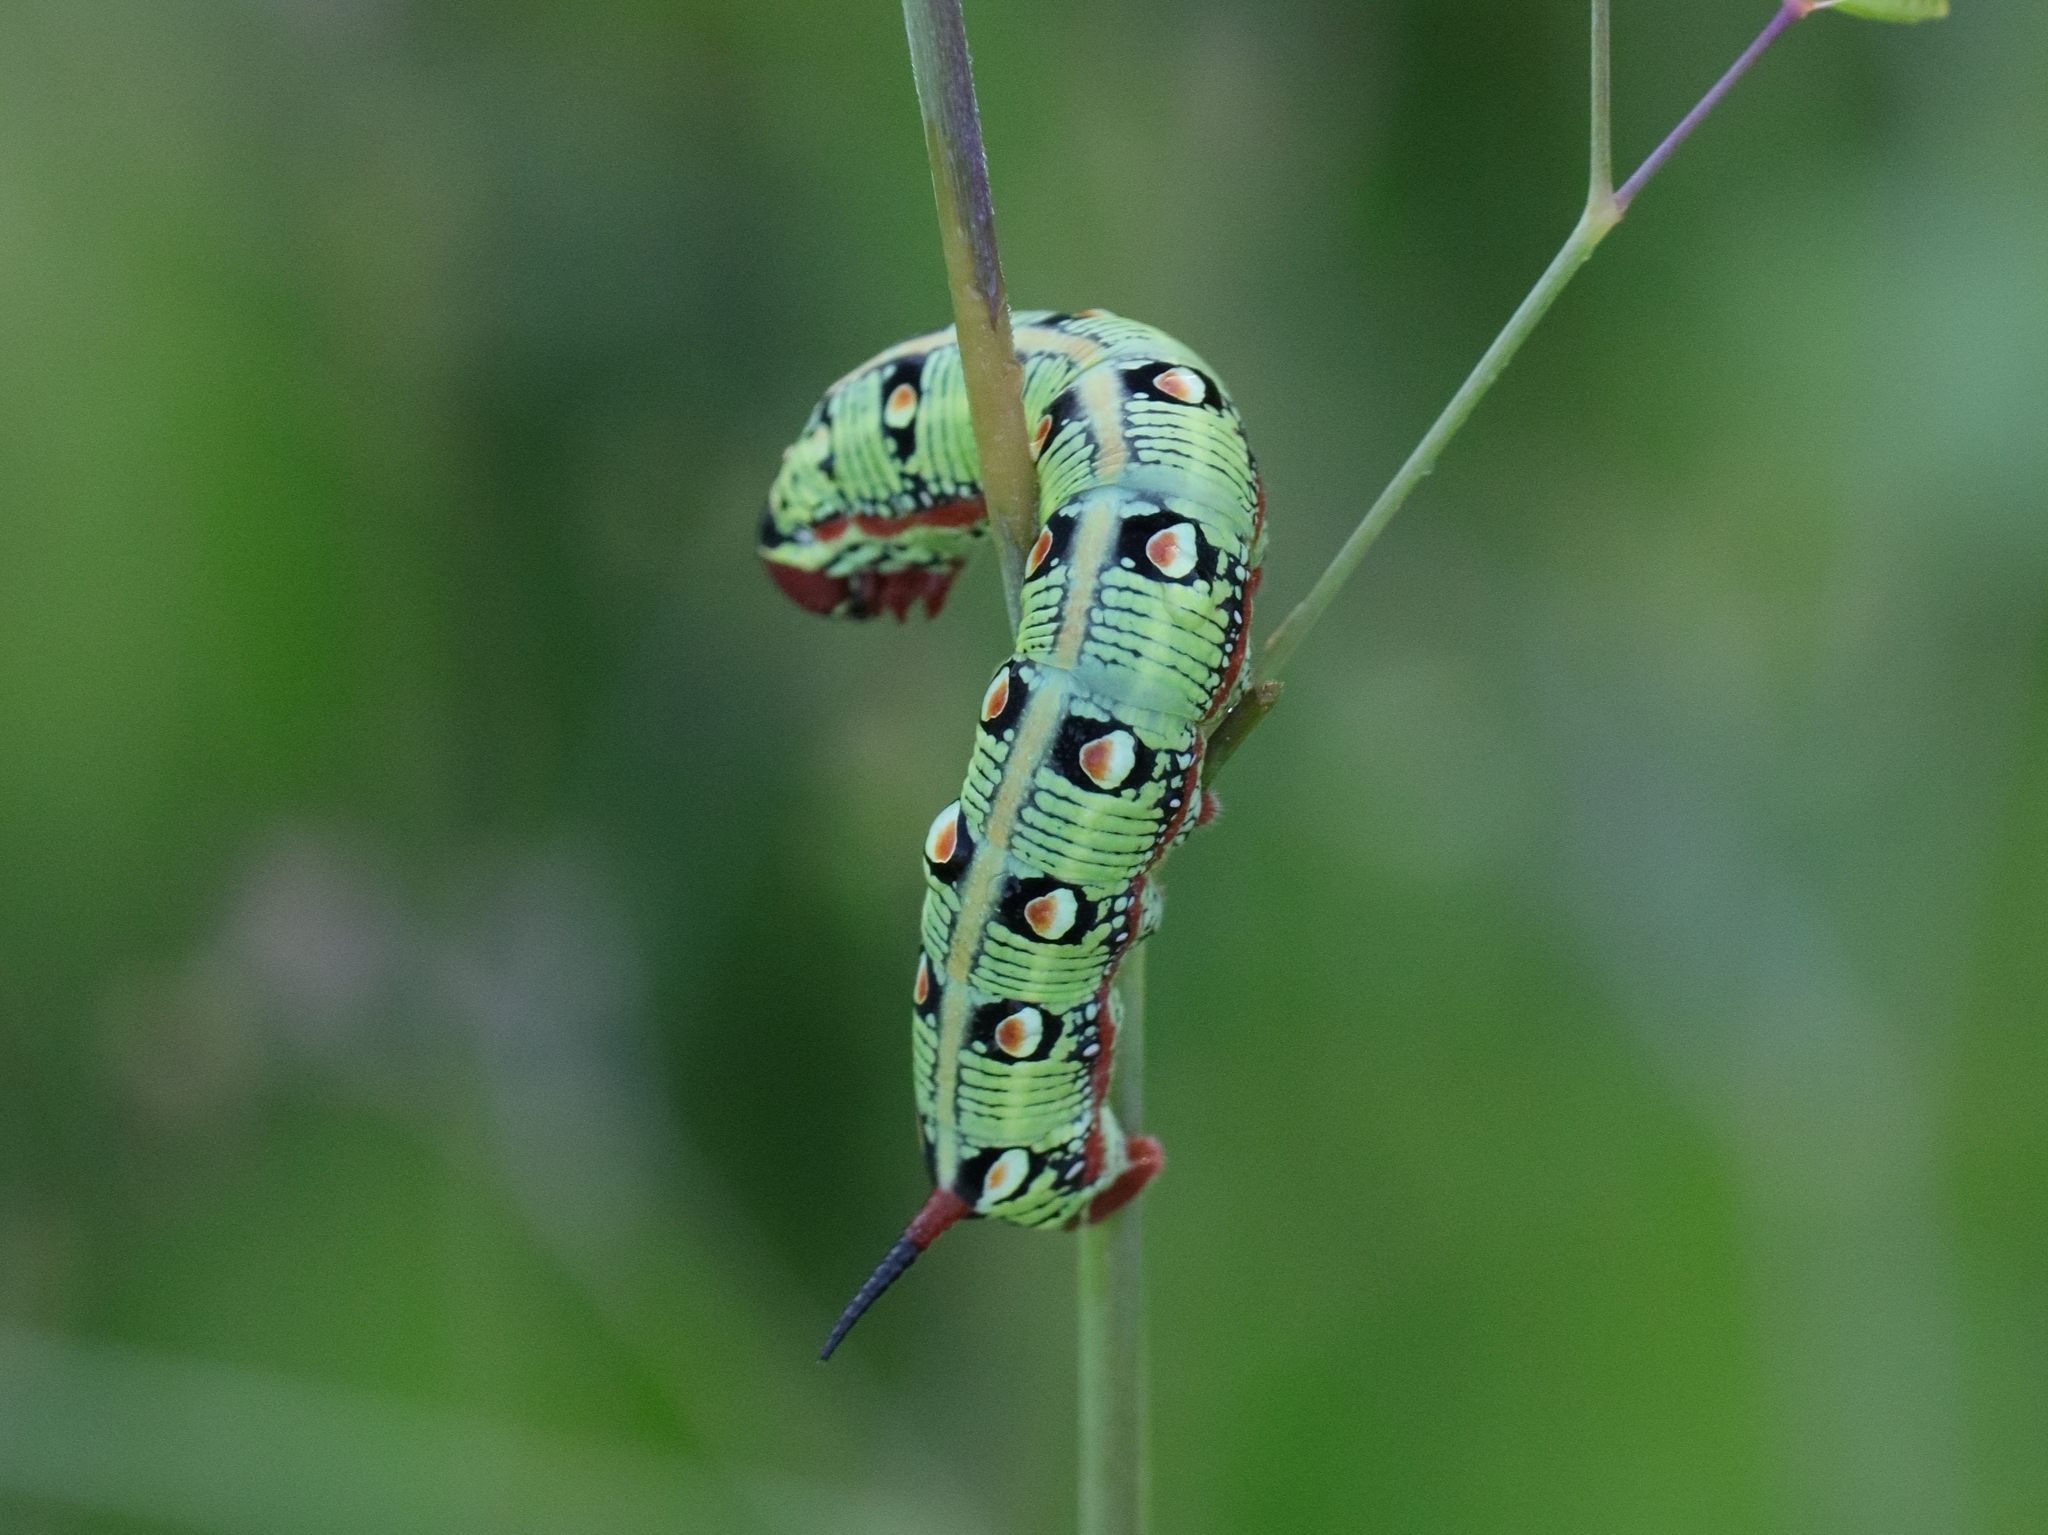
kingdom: Animalia
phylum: Arthropoda
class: Insecta
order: Lepidoptera
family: Sphingidae
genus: Hyles
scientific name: Hyles euphorbiarum
